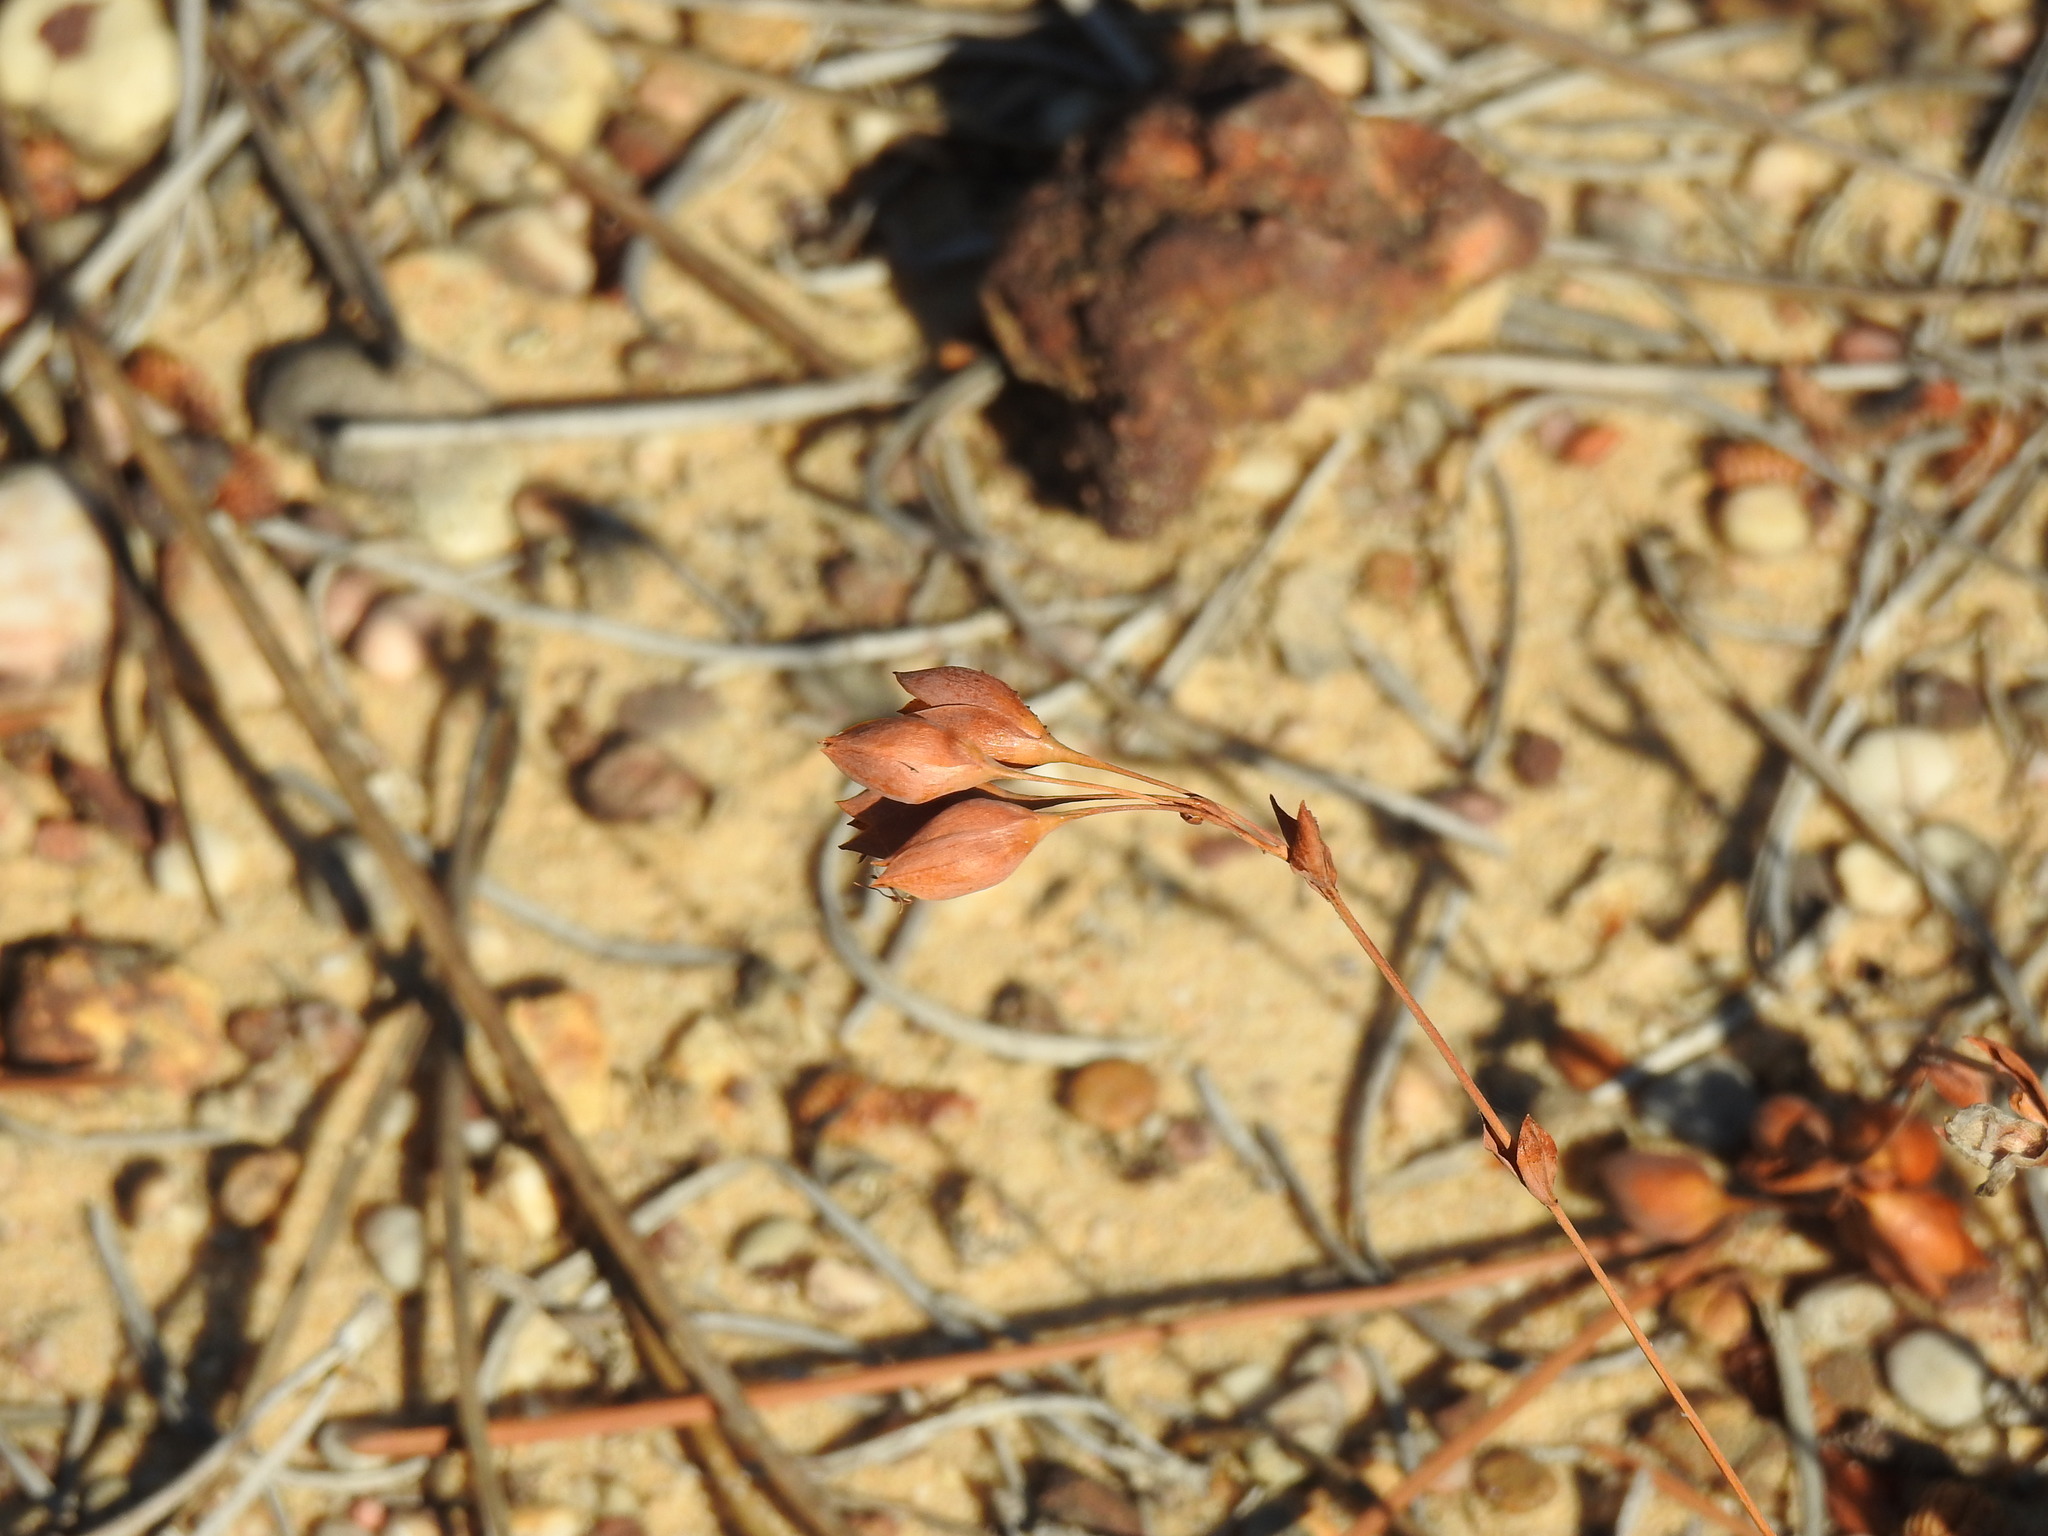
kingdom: Plantae
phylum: Tracheophyta
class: Magnoliopsida
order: Malvales
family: Cistaceae
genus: Tuberaria
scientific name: Tuberaria globulariifolia
